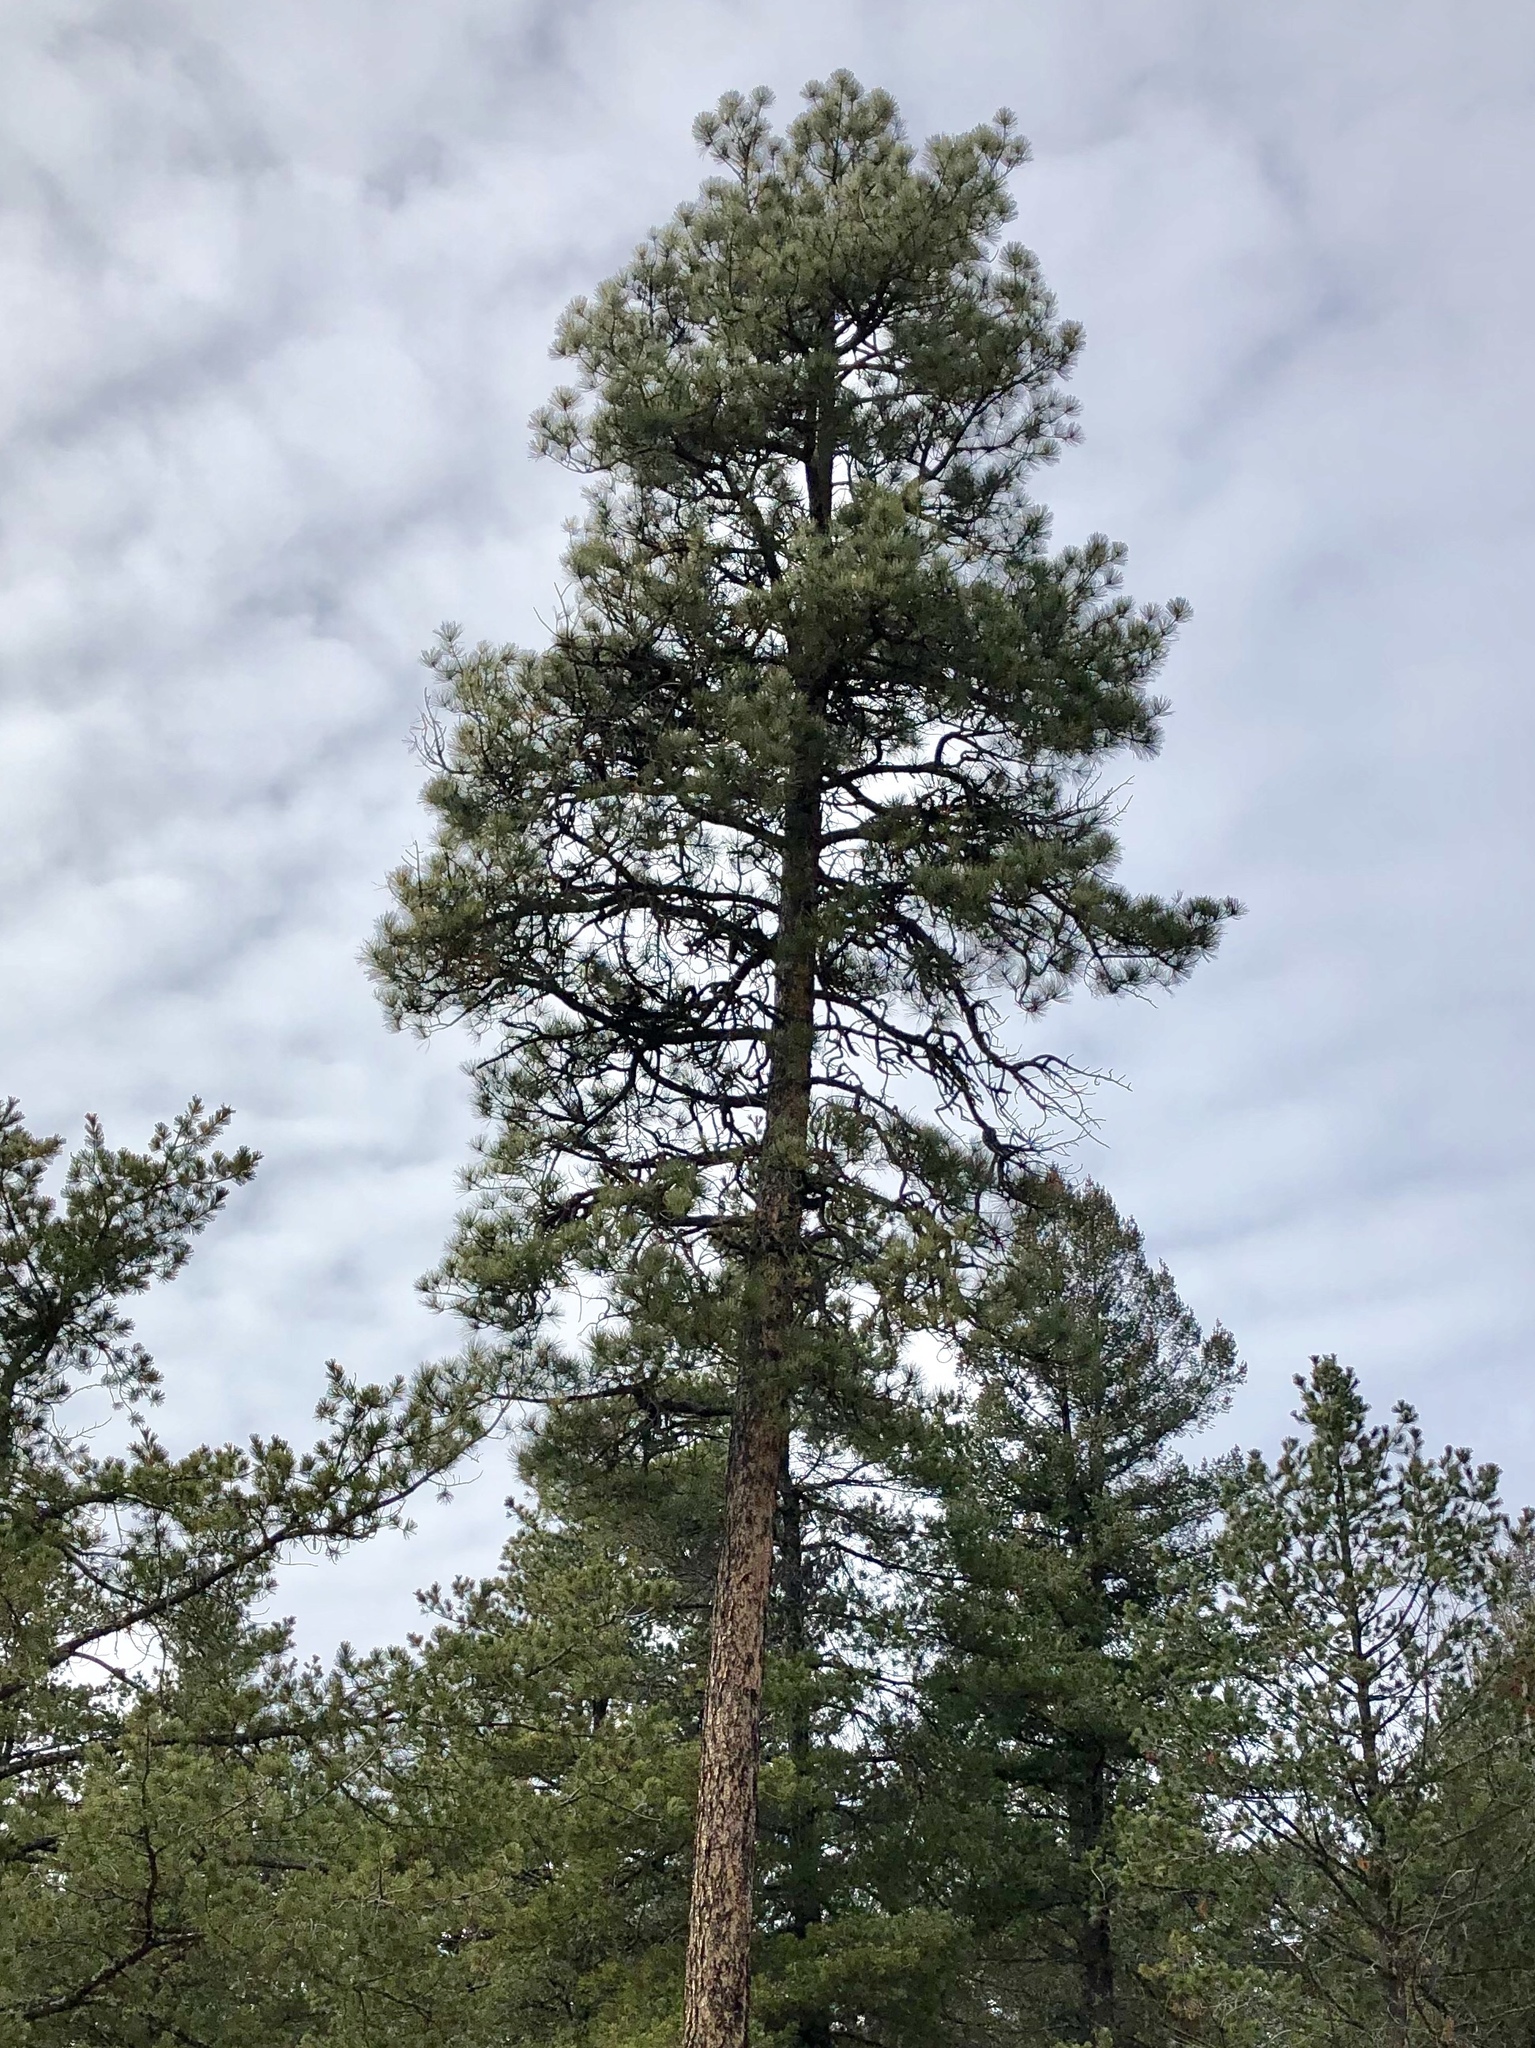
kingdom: Plantae
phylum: Tracheophyta
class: Pinopsida
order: Pinales
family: Pinaceae
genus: Pinus
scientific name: Pinus ponderosa
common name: Western yellow-pine
